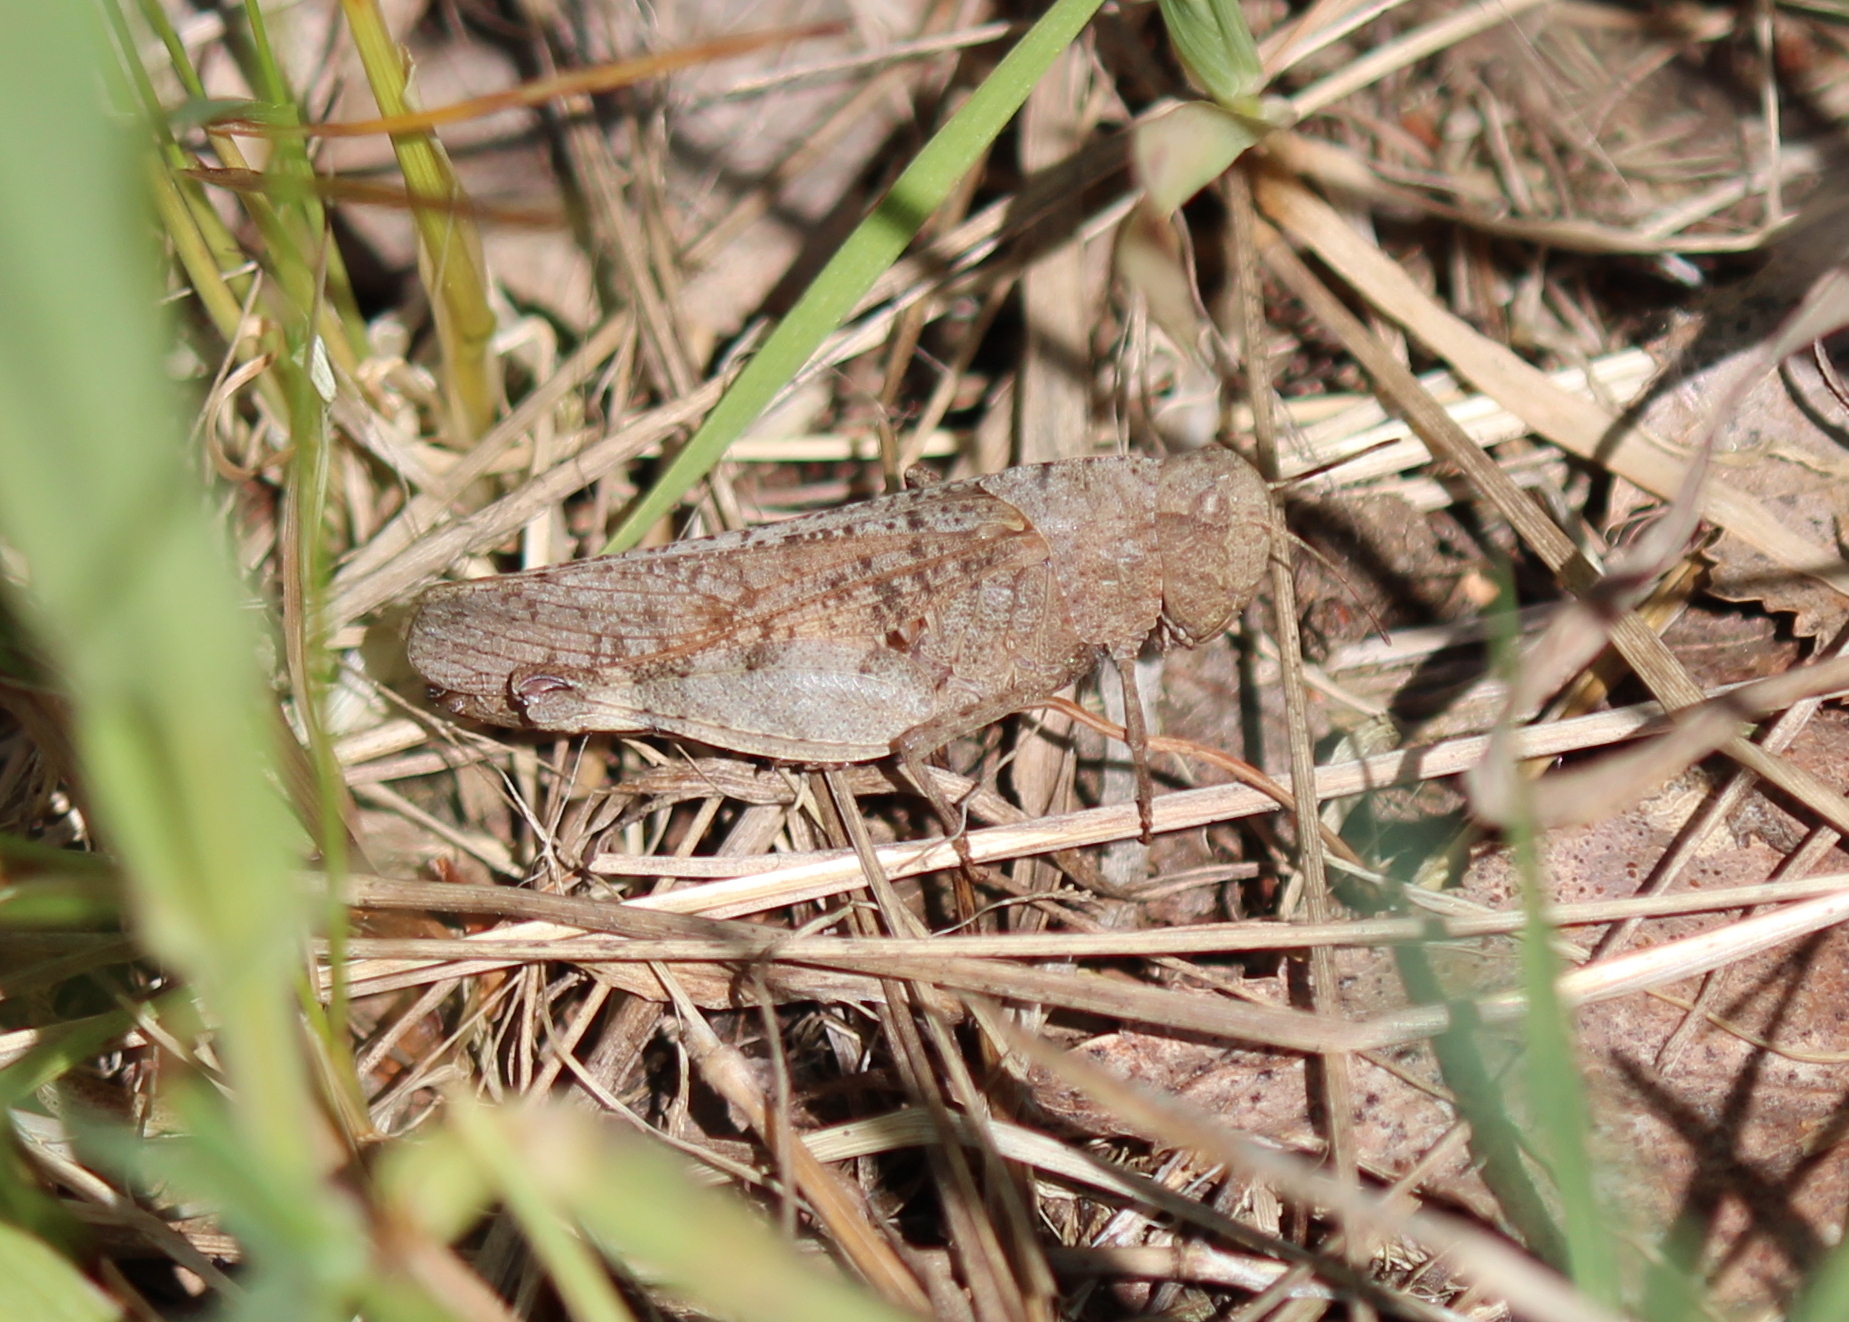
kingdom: Animalia
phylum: Arthropoda
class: Insecta
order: Orthoptera
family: Acrididae
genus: Arphia
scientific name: Arphia sulphurea
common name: Spring yellow-winged locust
